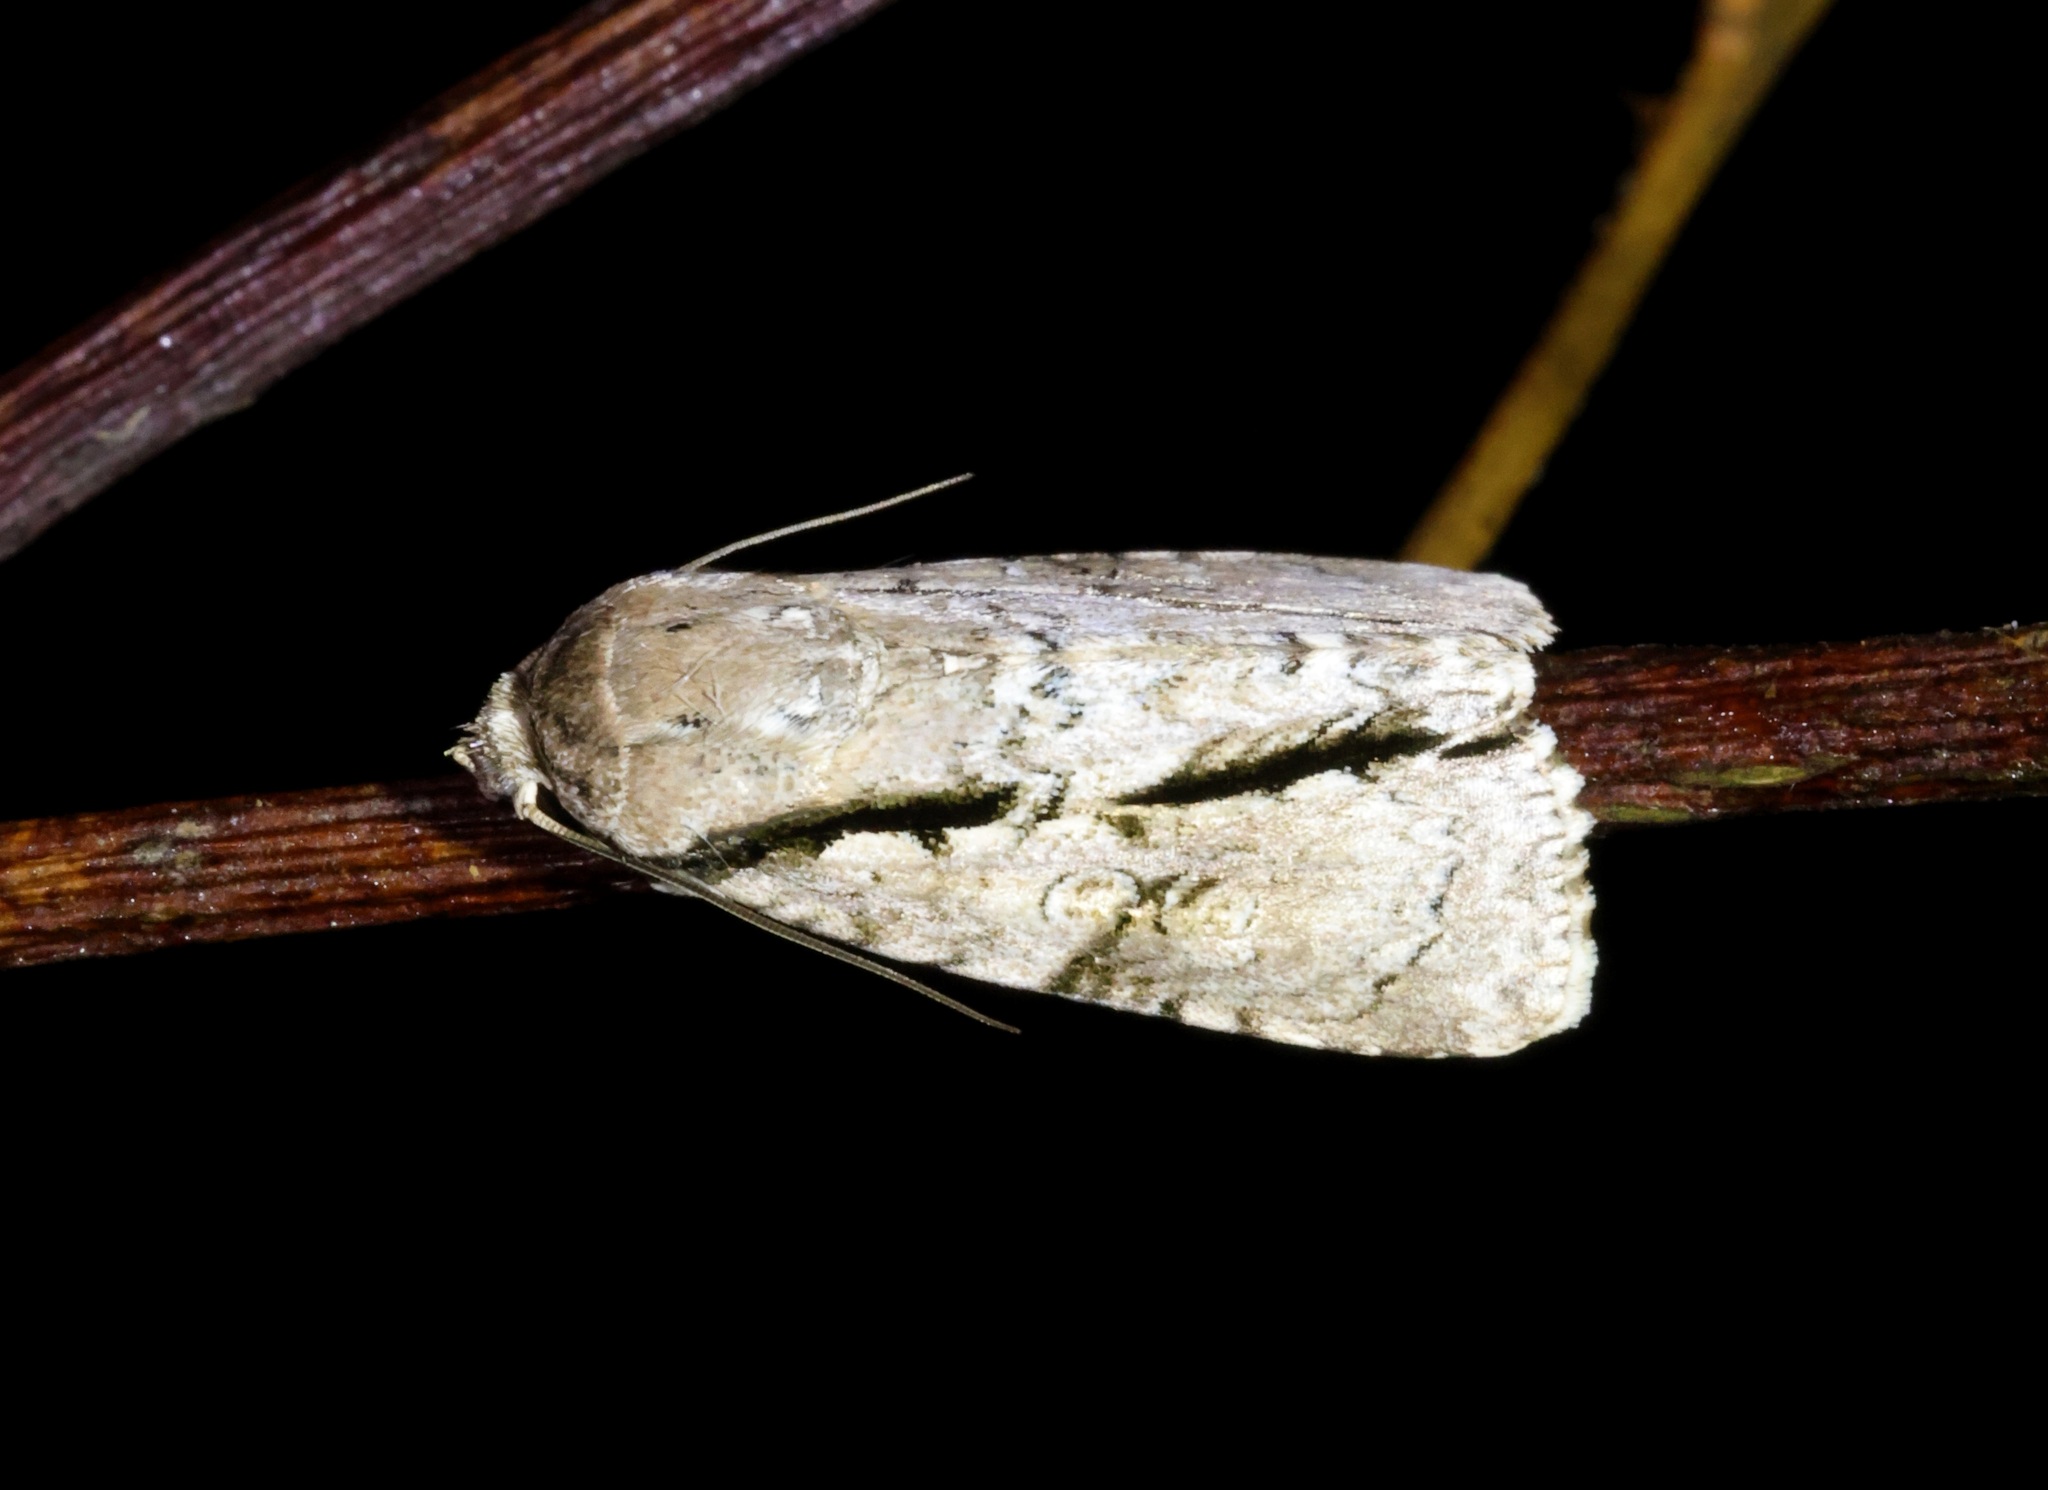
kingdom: Animalia
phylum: Arthropoda
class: Insecta
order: Lepidoptera
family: Noctuidae
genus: Fascionycta
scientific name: Fascionycta fasciata
